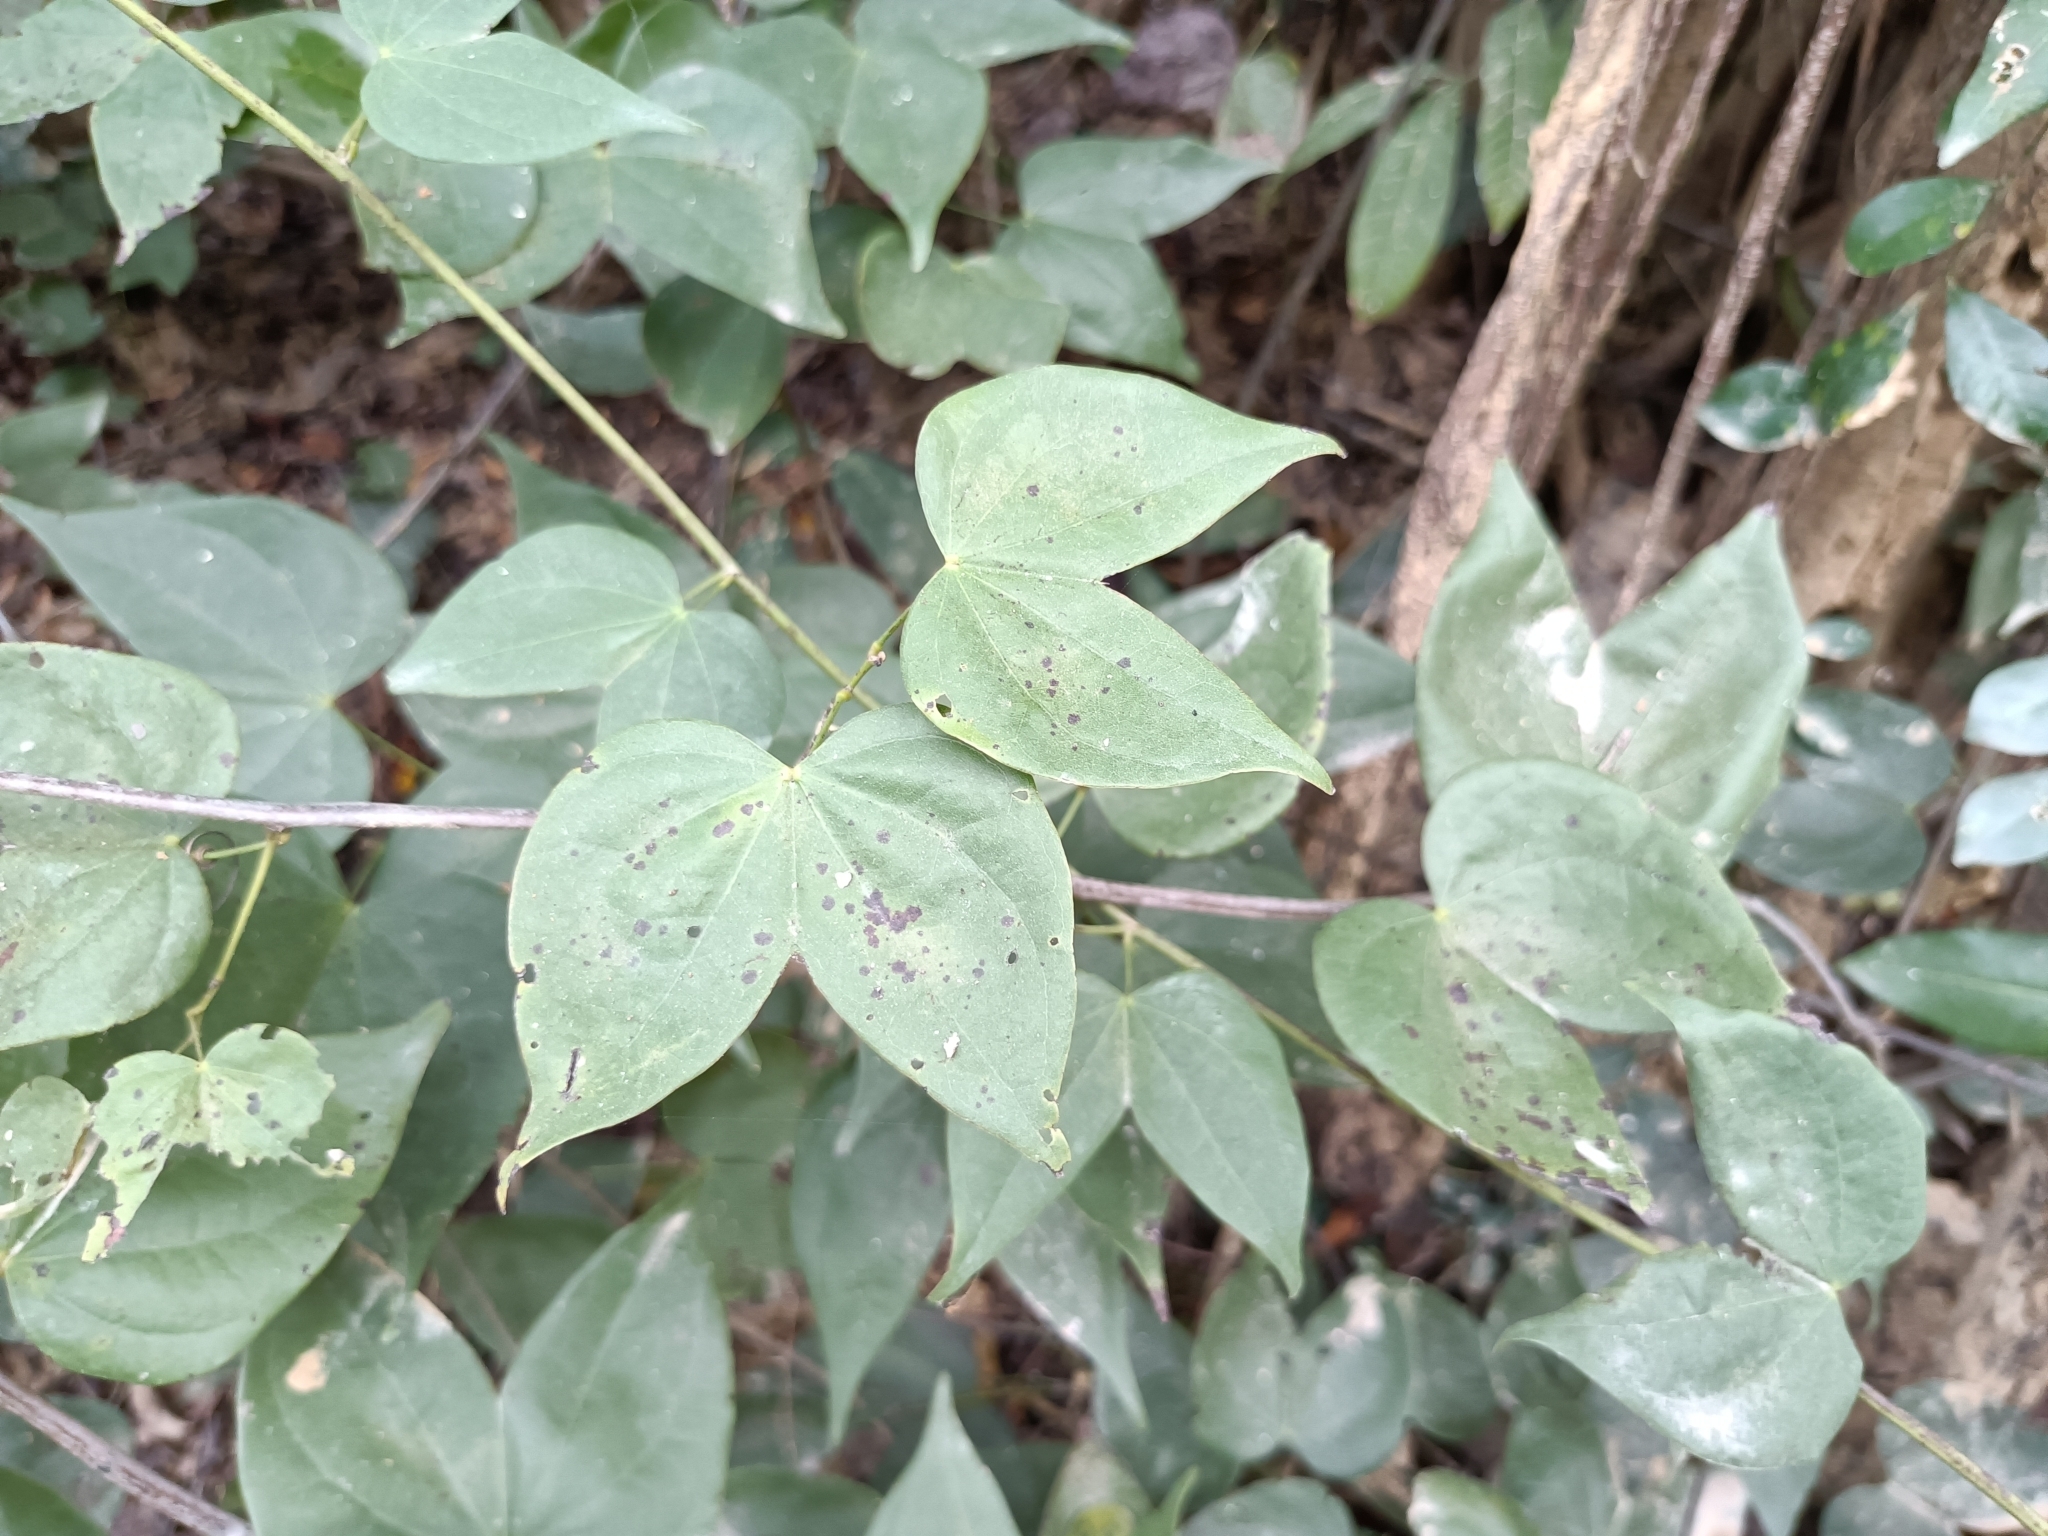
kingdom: Plantae
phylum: Tracheophyta
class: Magnoliopsida
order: Fabales
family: Fabaceae
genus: Phanera
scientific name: Phanera championii
